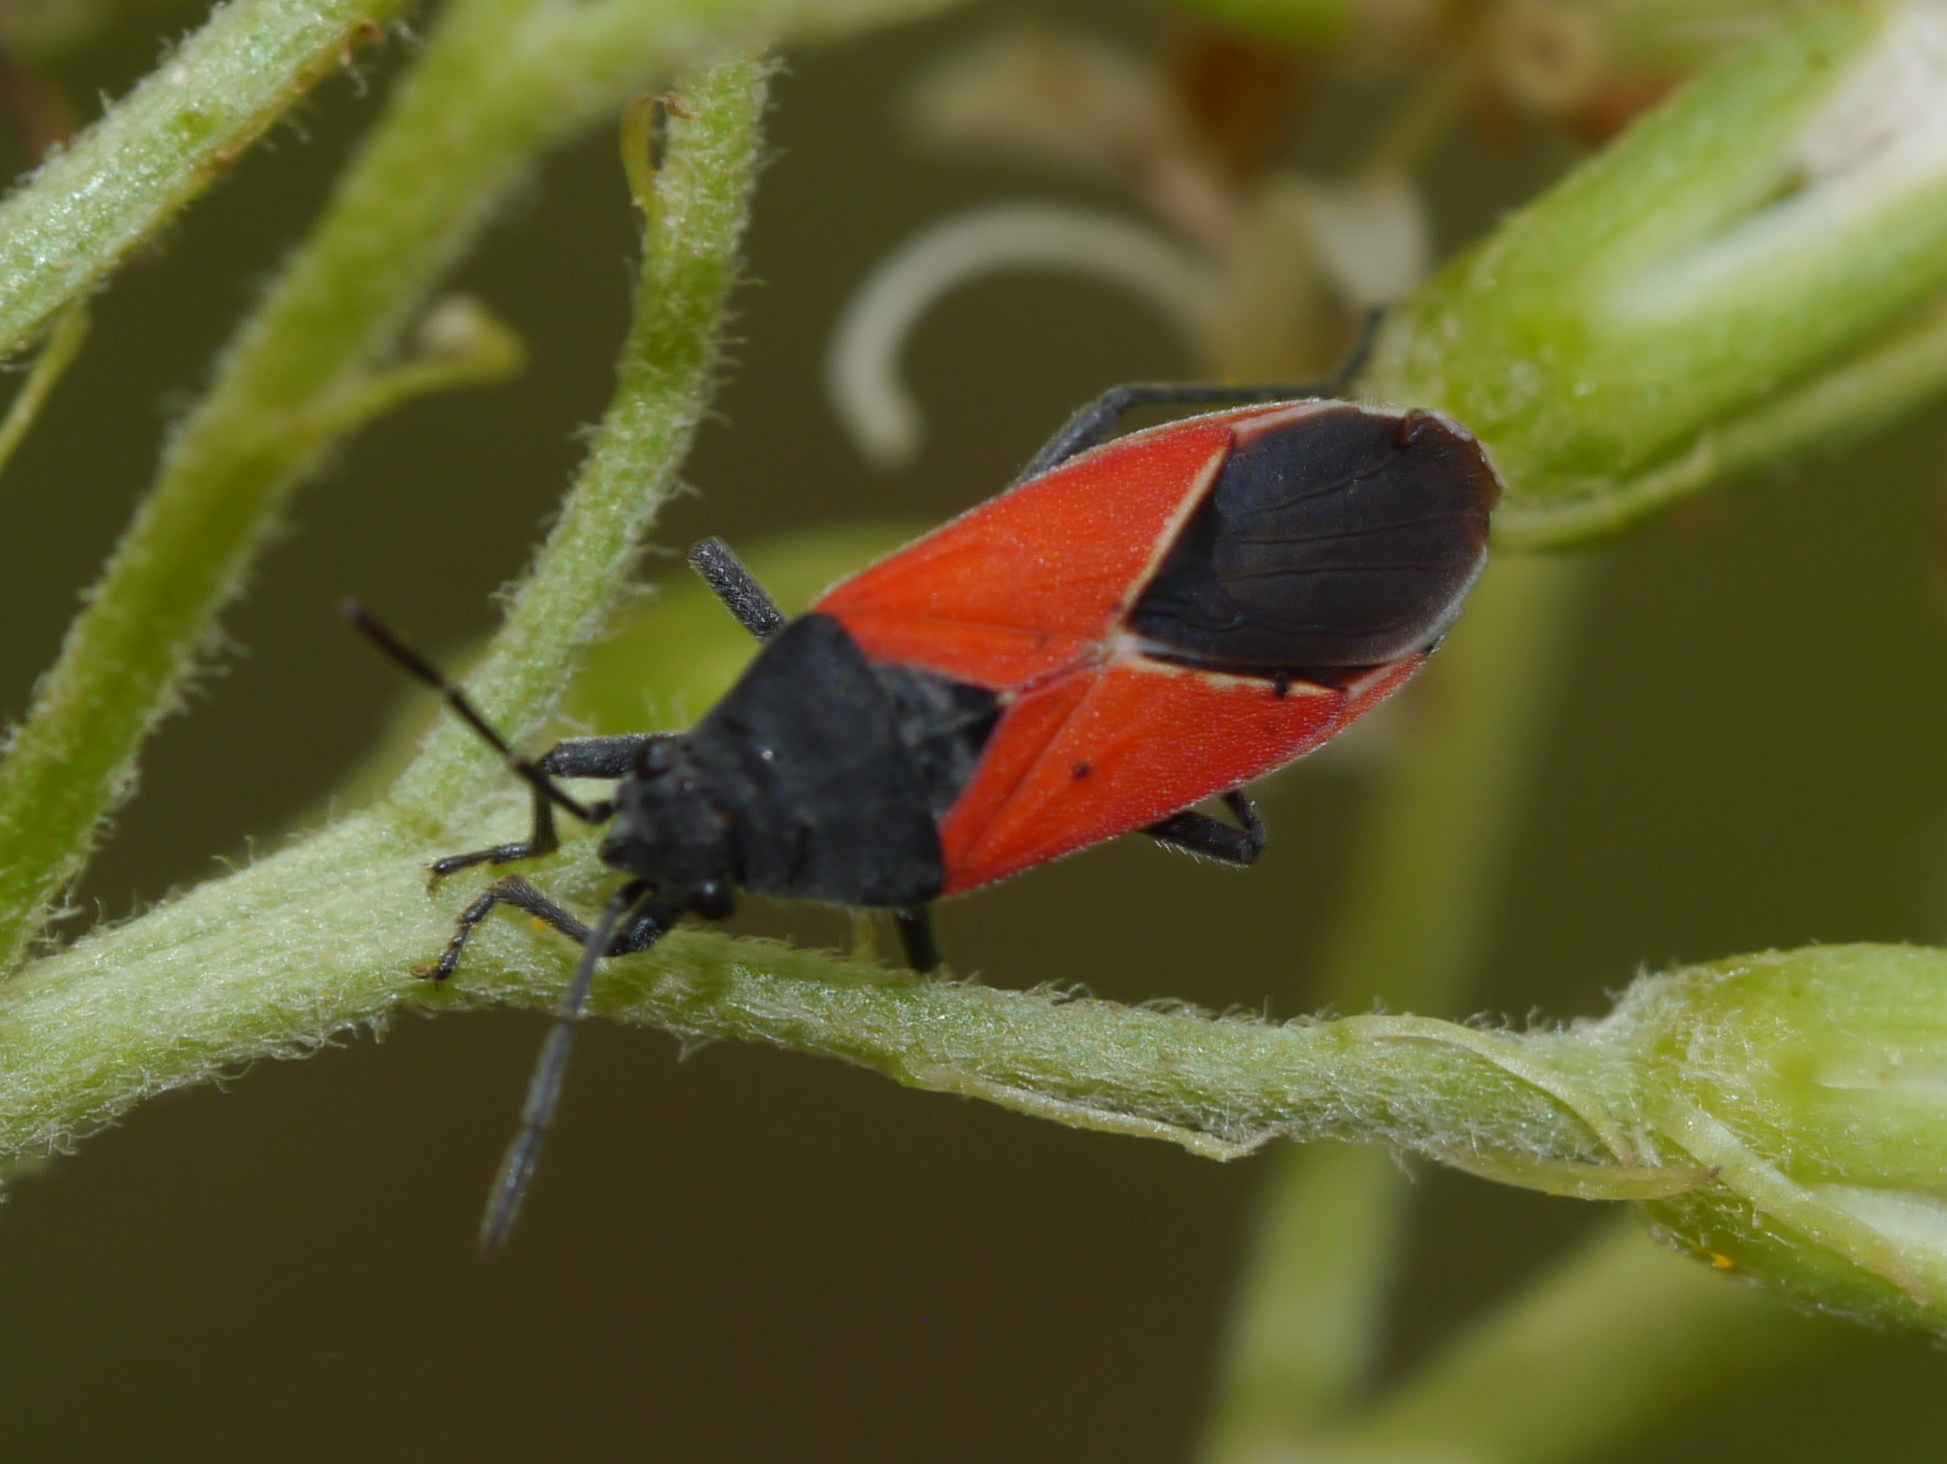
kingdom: Animalia
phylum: Arthropoda
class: Insecta
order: Hemiptera
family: Lygaeidae
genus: Melanopleurus
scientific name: Melanopleurus belfragei
